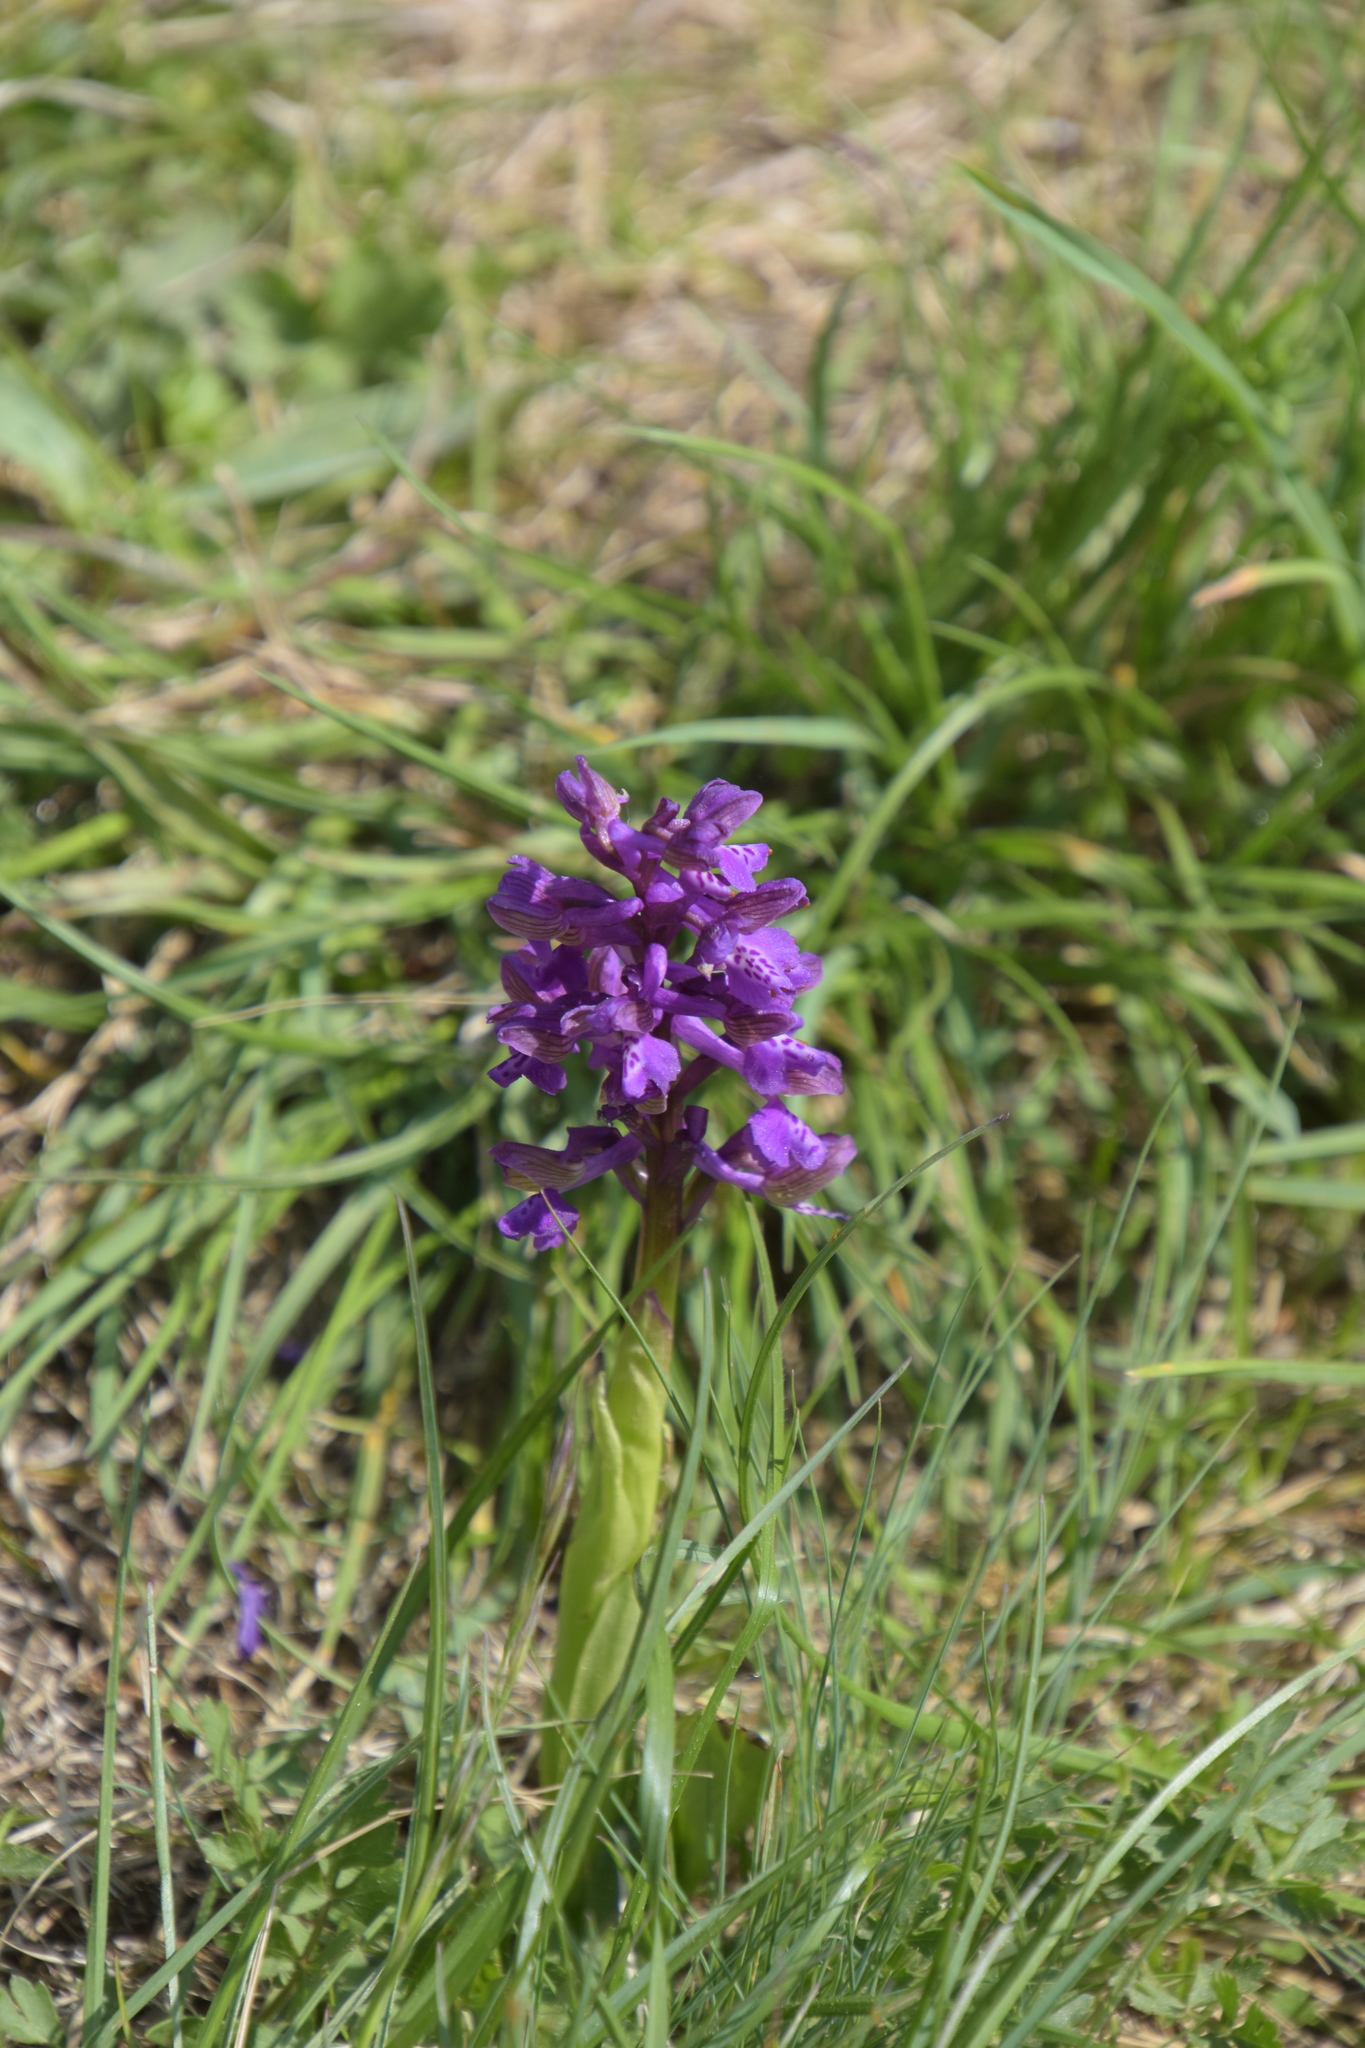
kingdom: Plantae
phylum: Tracheophyta
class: Liliopsida
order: Asparagales
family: Orchidaceae
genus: Anacamptis
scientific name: Anacamptis morio
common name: Green-winged orchid
